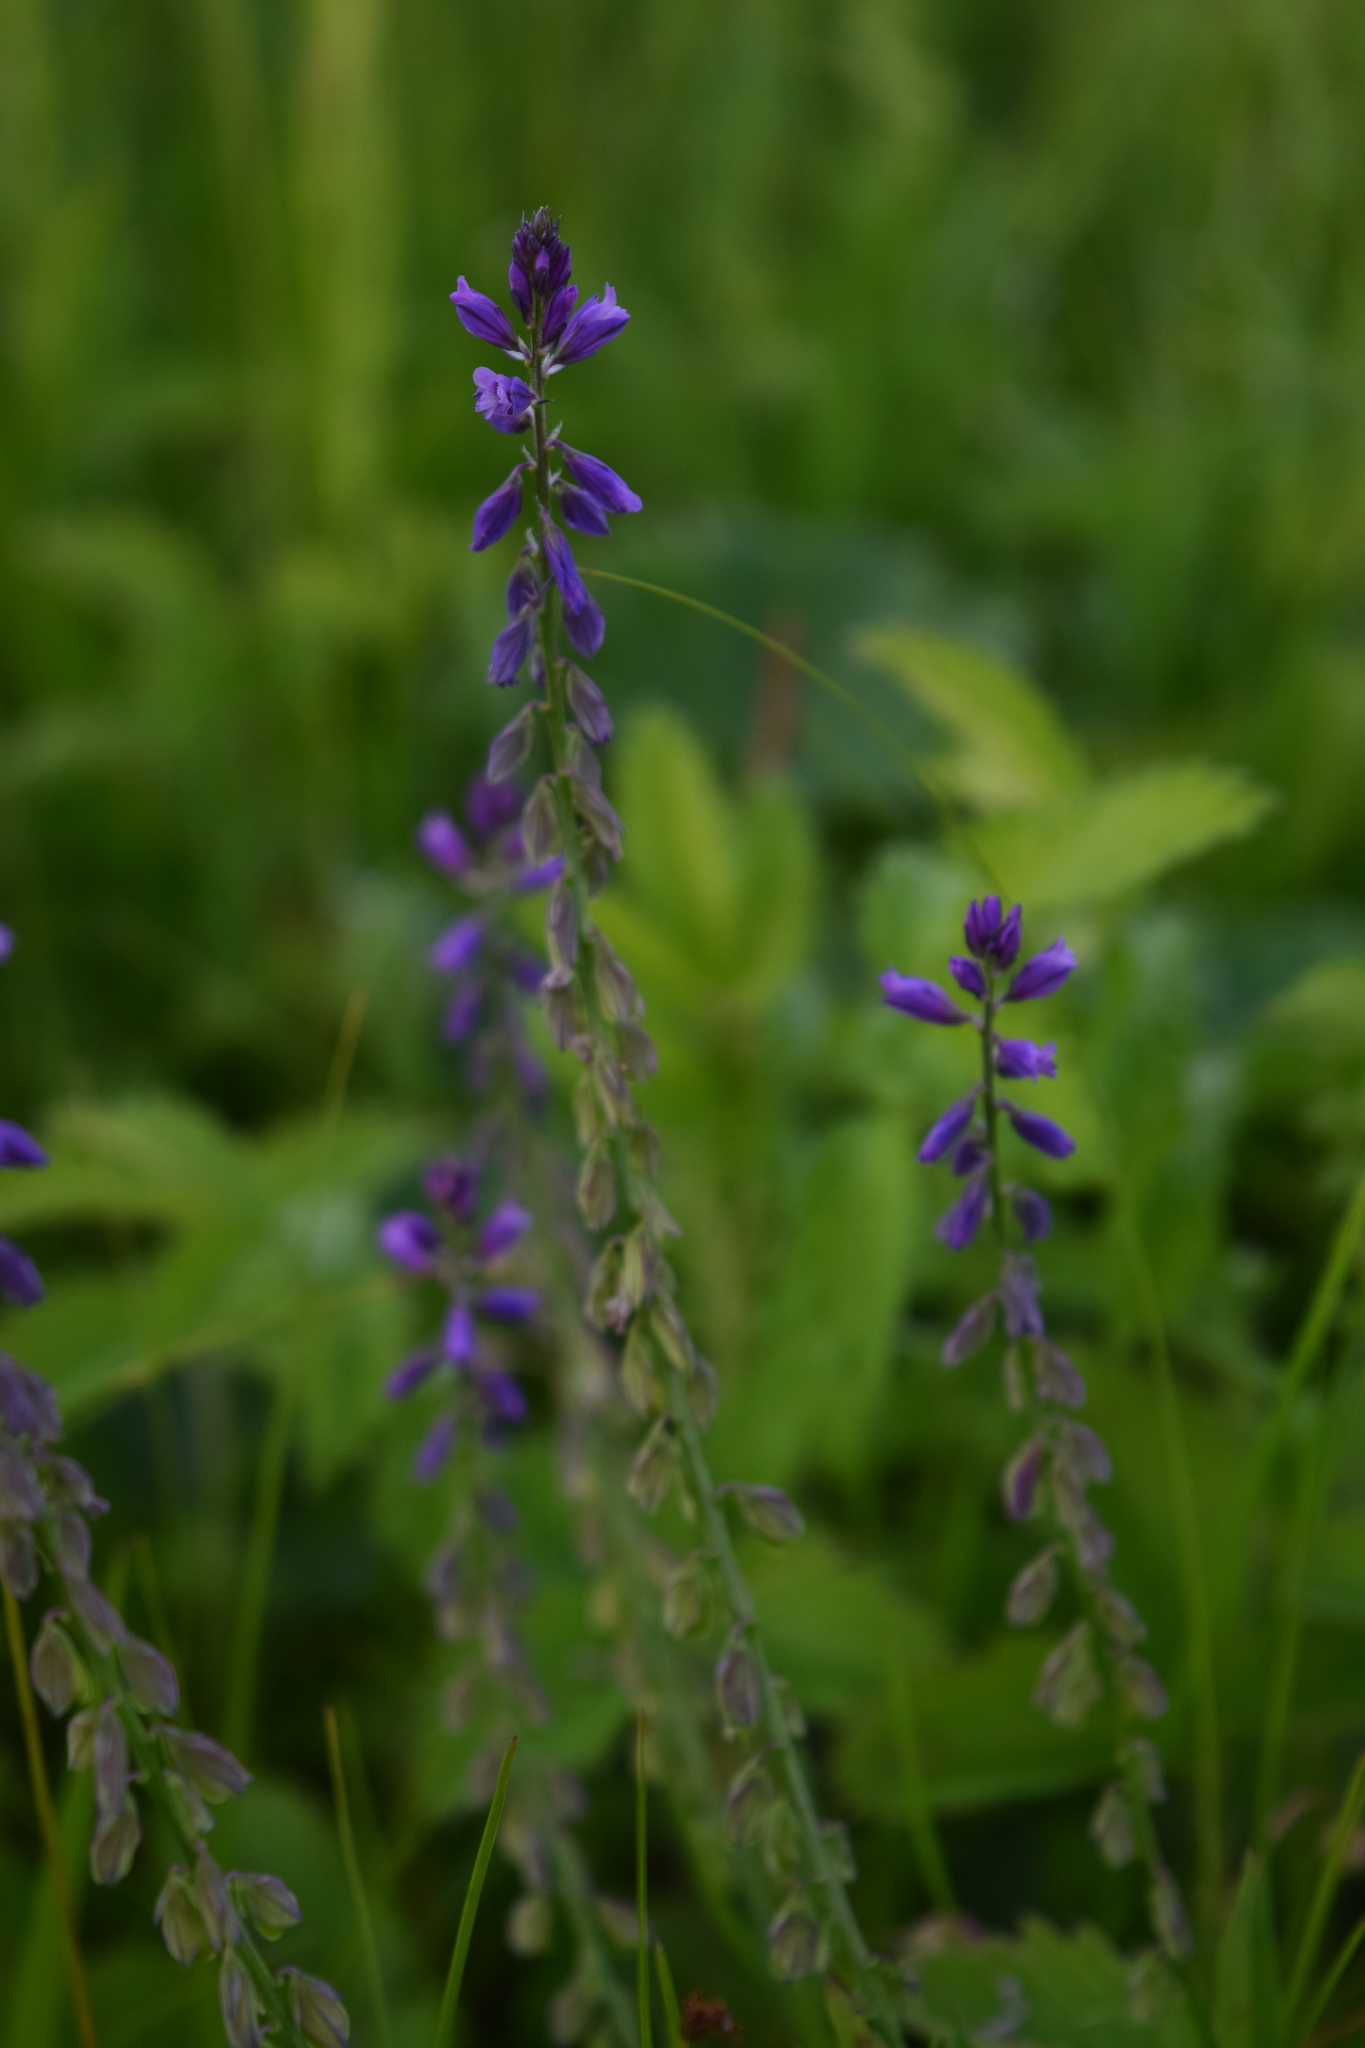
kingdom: Plantae
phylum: Tracheophyta
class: Magnoliopsida
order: Fabales
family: Polygalaceae
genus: Polygala
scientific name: Polygala comosa
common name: Tufted milkwort
